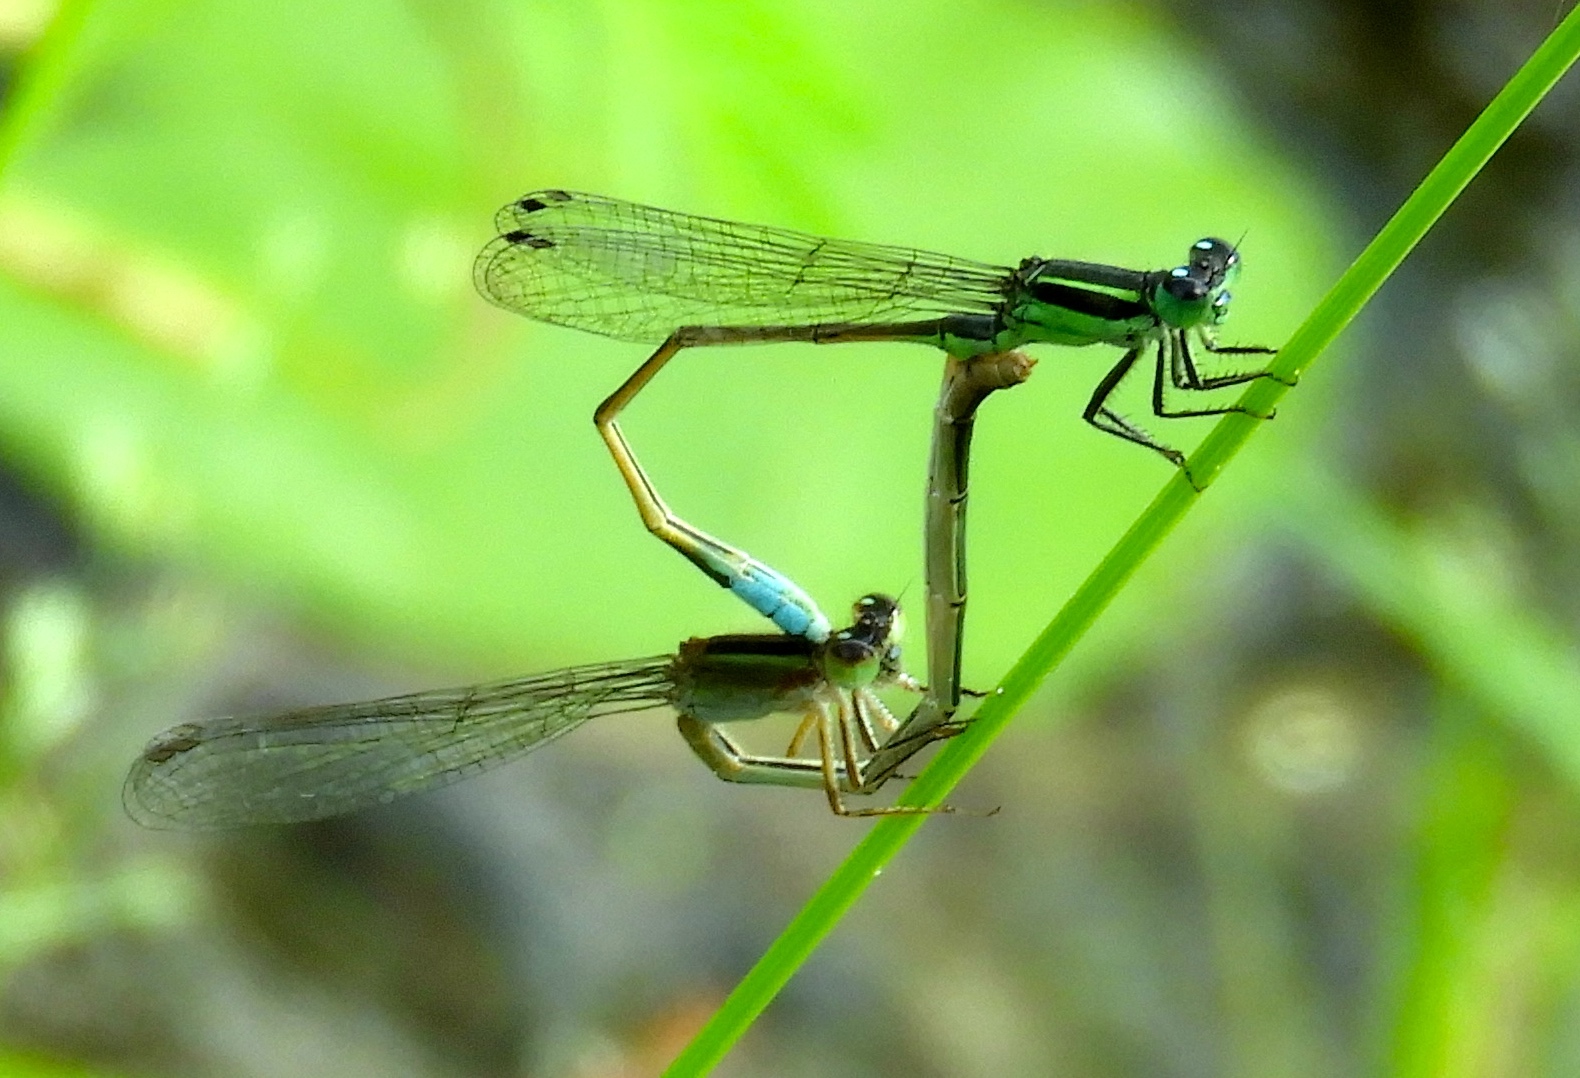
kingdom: Animalia
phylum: Arthropoda
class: Insecta
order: Odonata
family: Coenagrionidae
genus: Ischnura
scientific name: Ischnura ramburii
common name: Rambur's forktail
